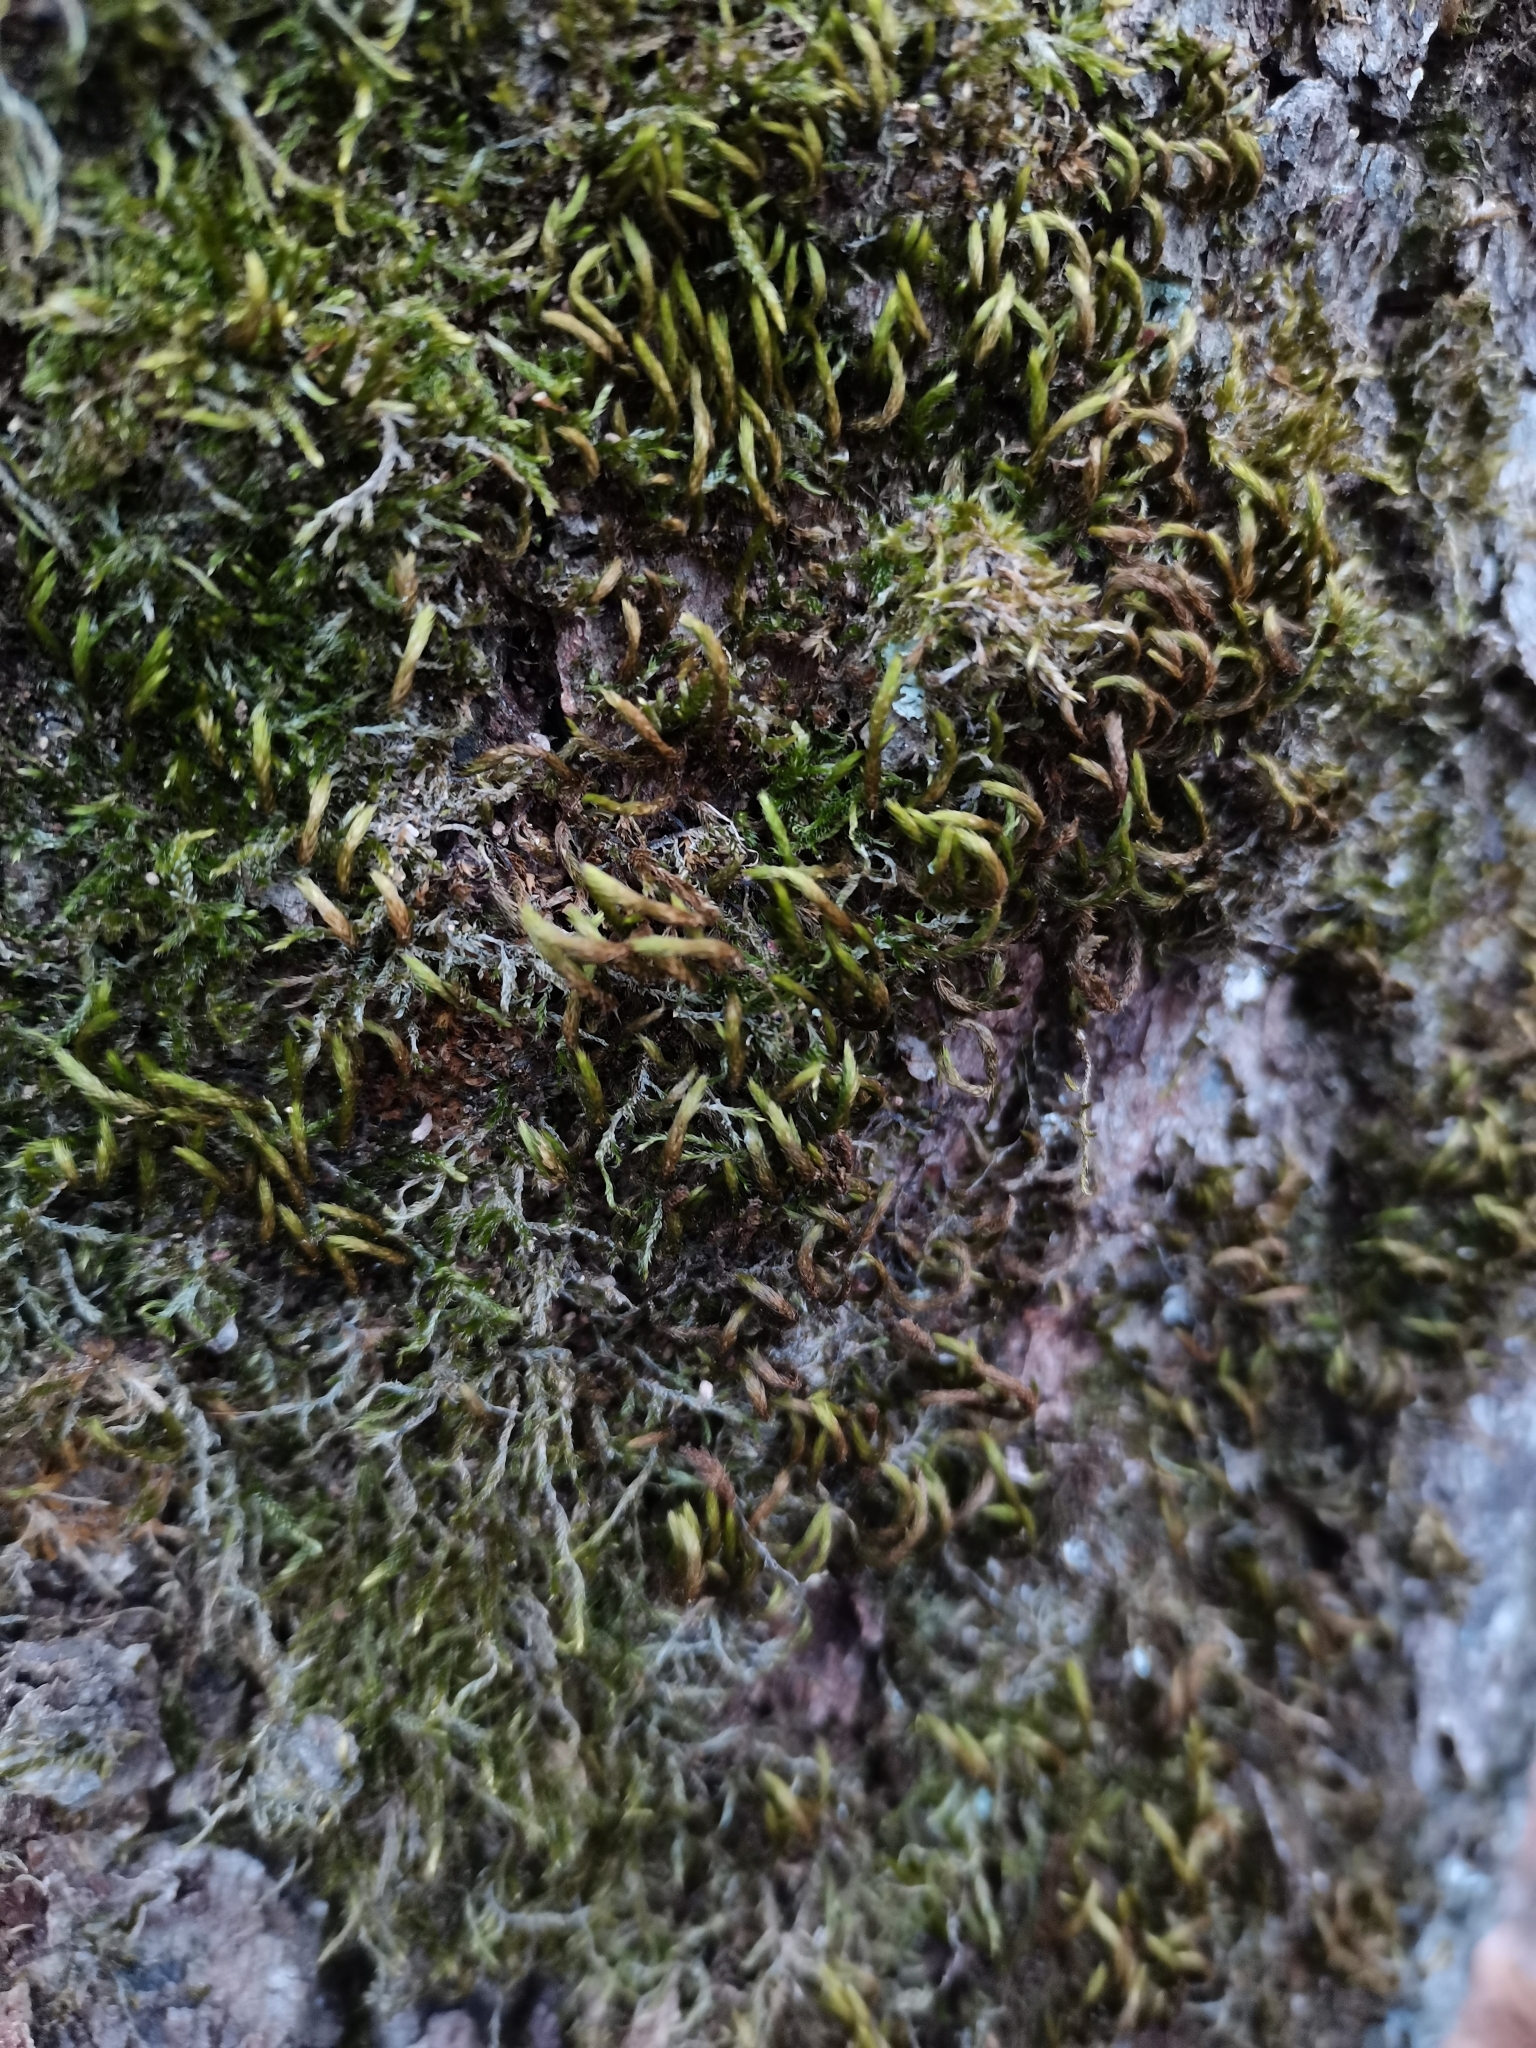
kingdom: Plantae
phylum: Bryophyta
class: Bryopsida
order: Hypnales
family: Leucodontaceae
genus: Leucodon
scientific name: Leucodon sciuroides
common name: Squirrel-tail moss
